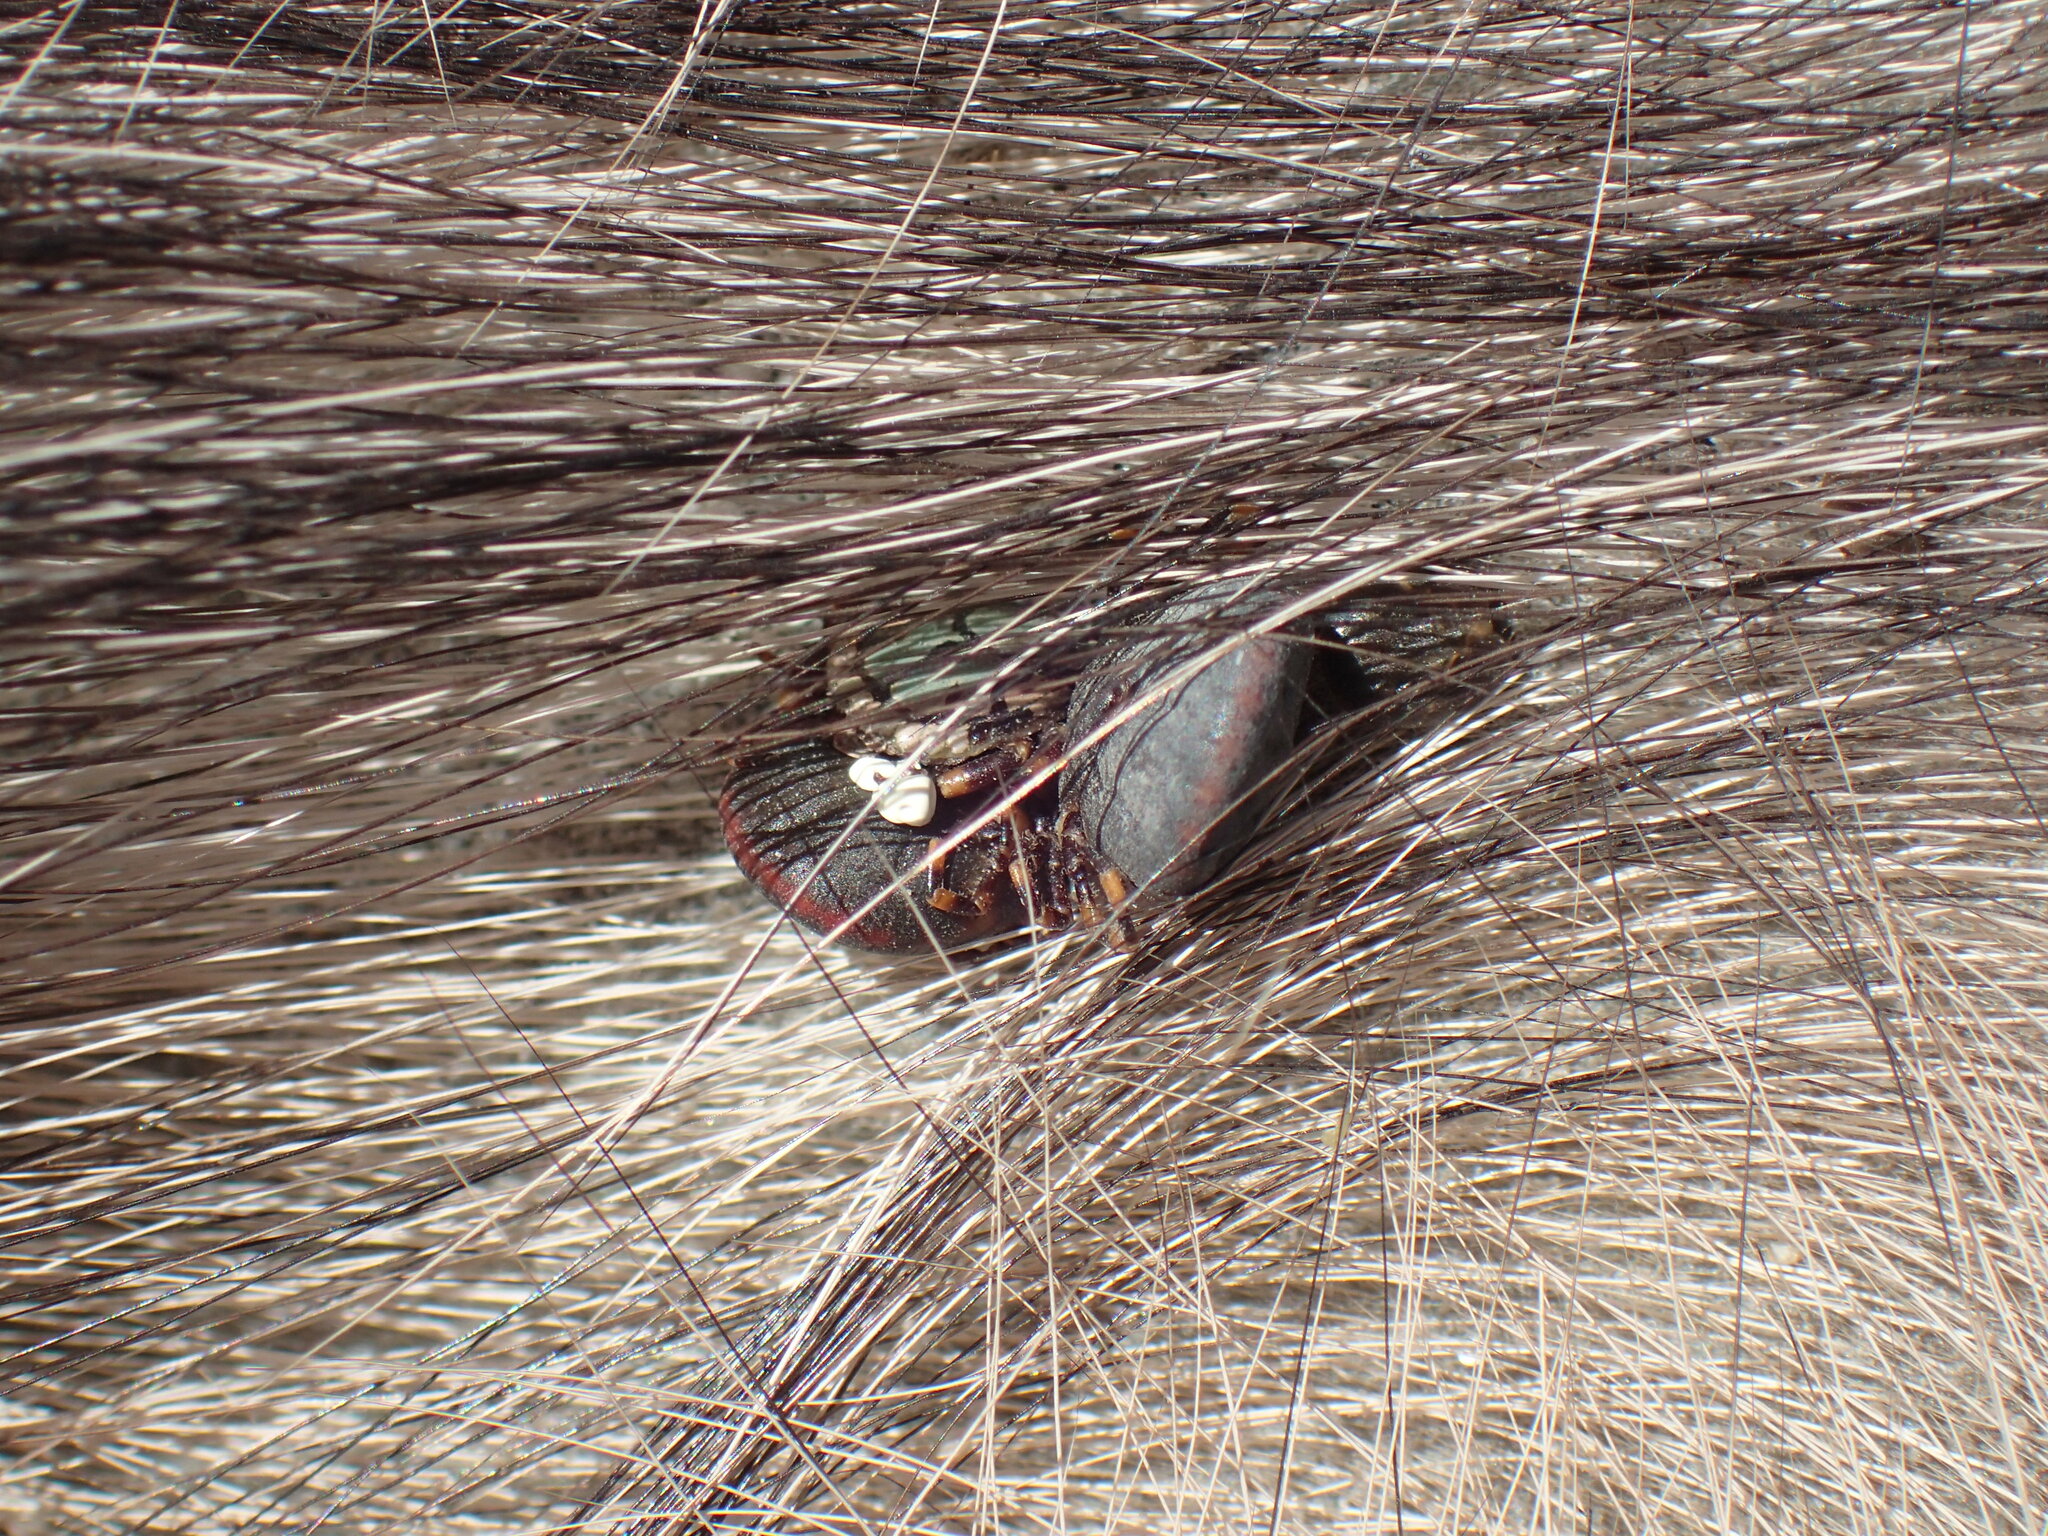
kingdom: Animalia
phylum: Arthropoda
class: Arachnida
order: Ixodida
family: Ixodidae
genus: Amblyomma
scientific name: Amblyomma hebraeum
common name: Bont tick
